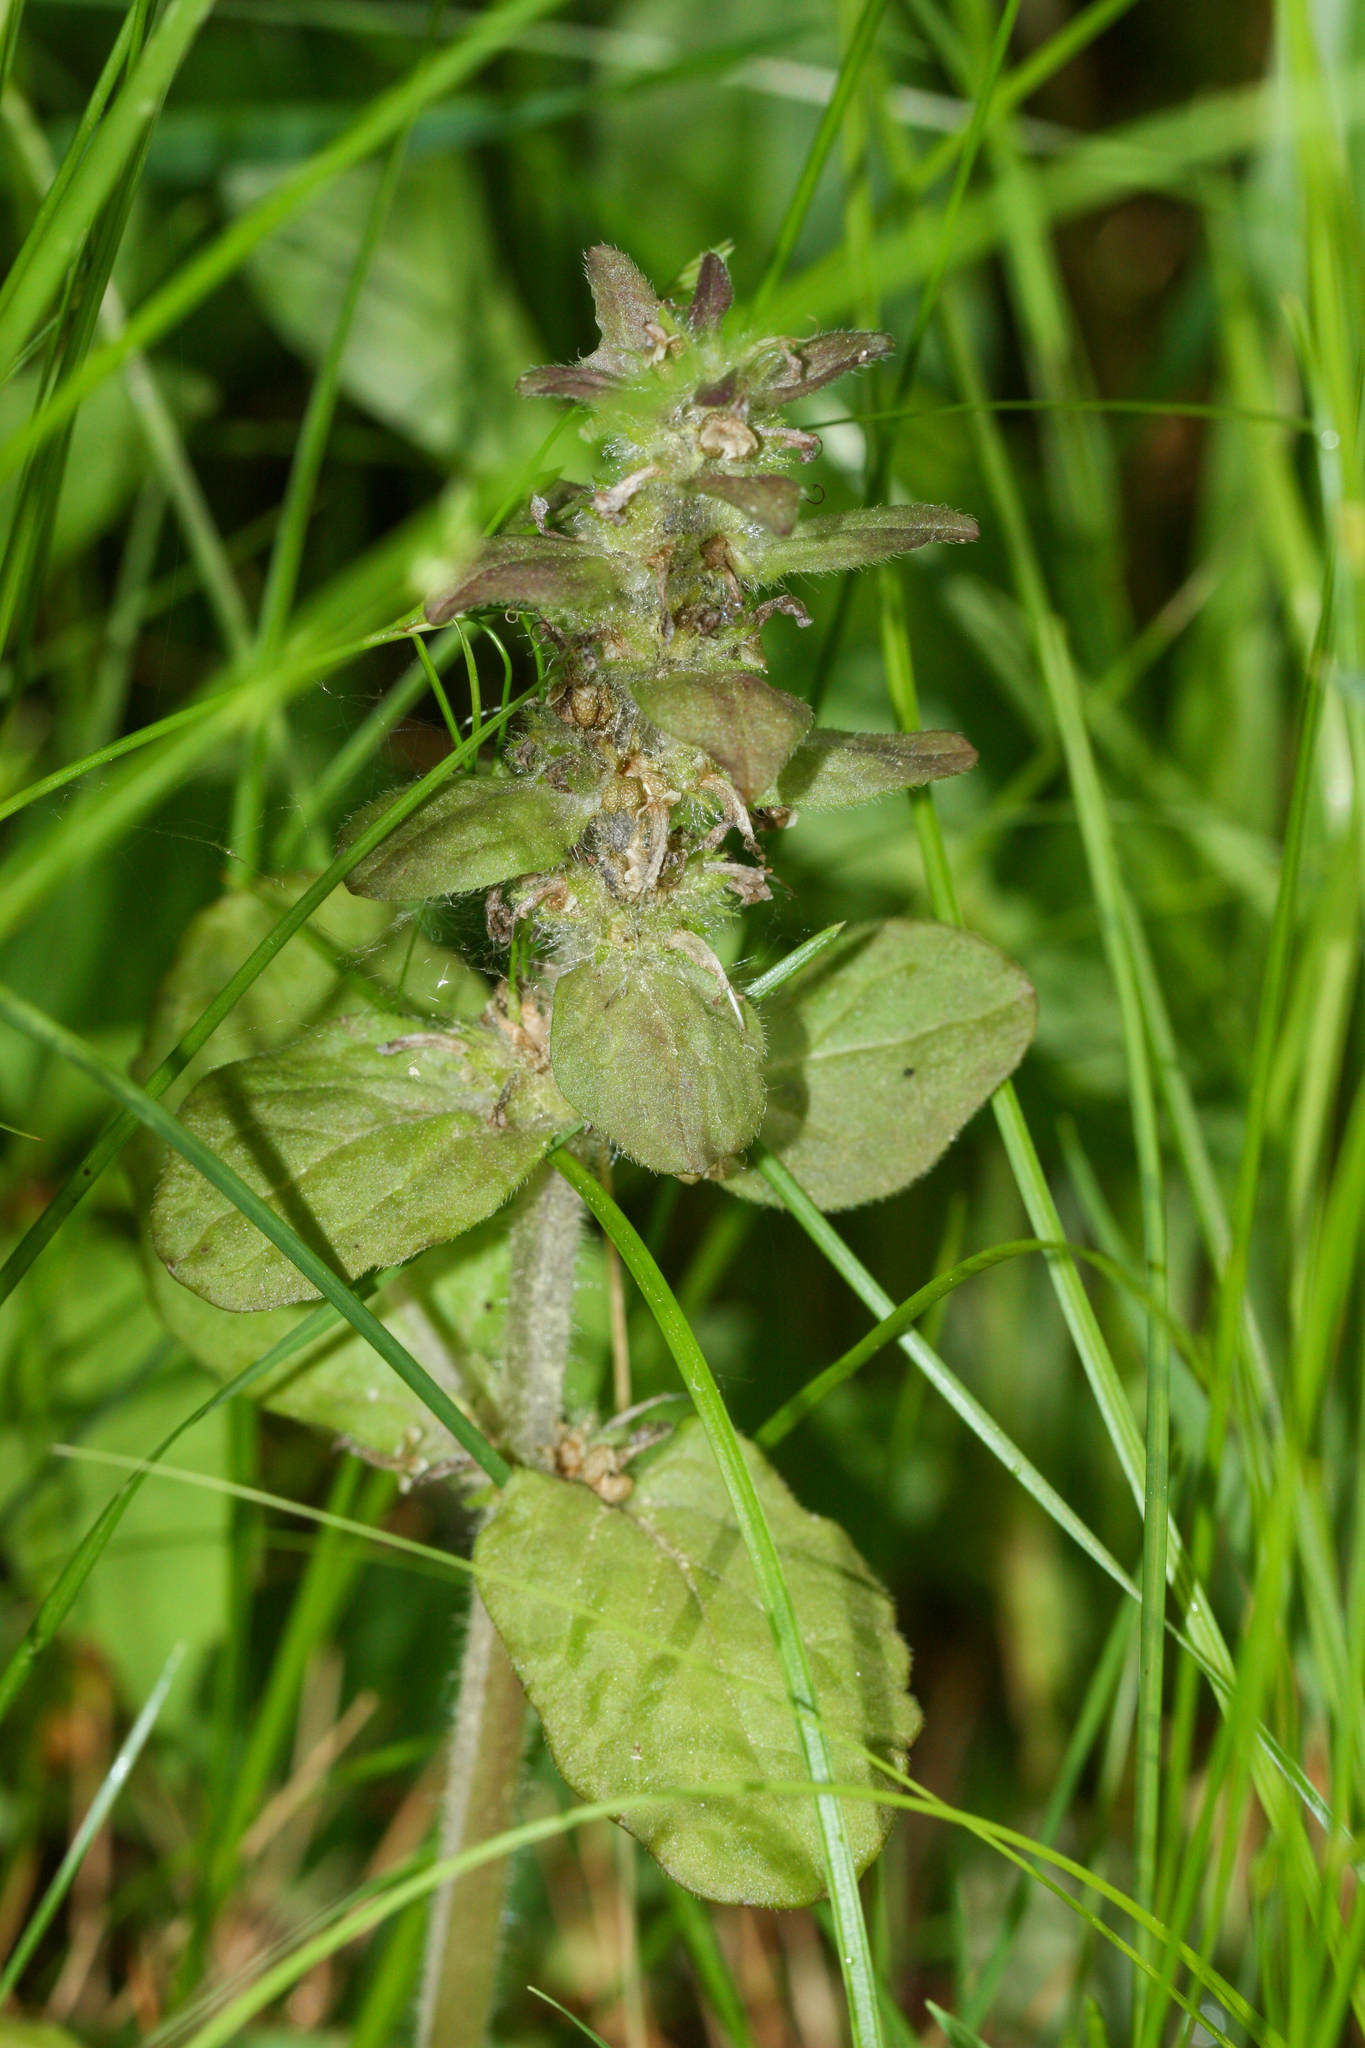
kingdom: Plantae
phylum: Tracheophyta
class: Magnoliopsida
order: Lamiales
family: Lamiaceae
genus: Ajuga
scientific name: Ajuga reptans
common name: Bugle
